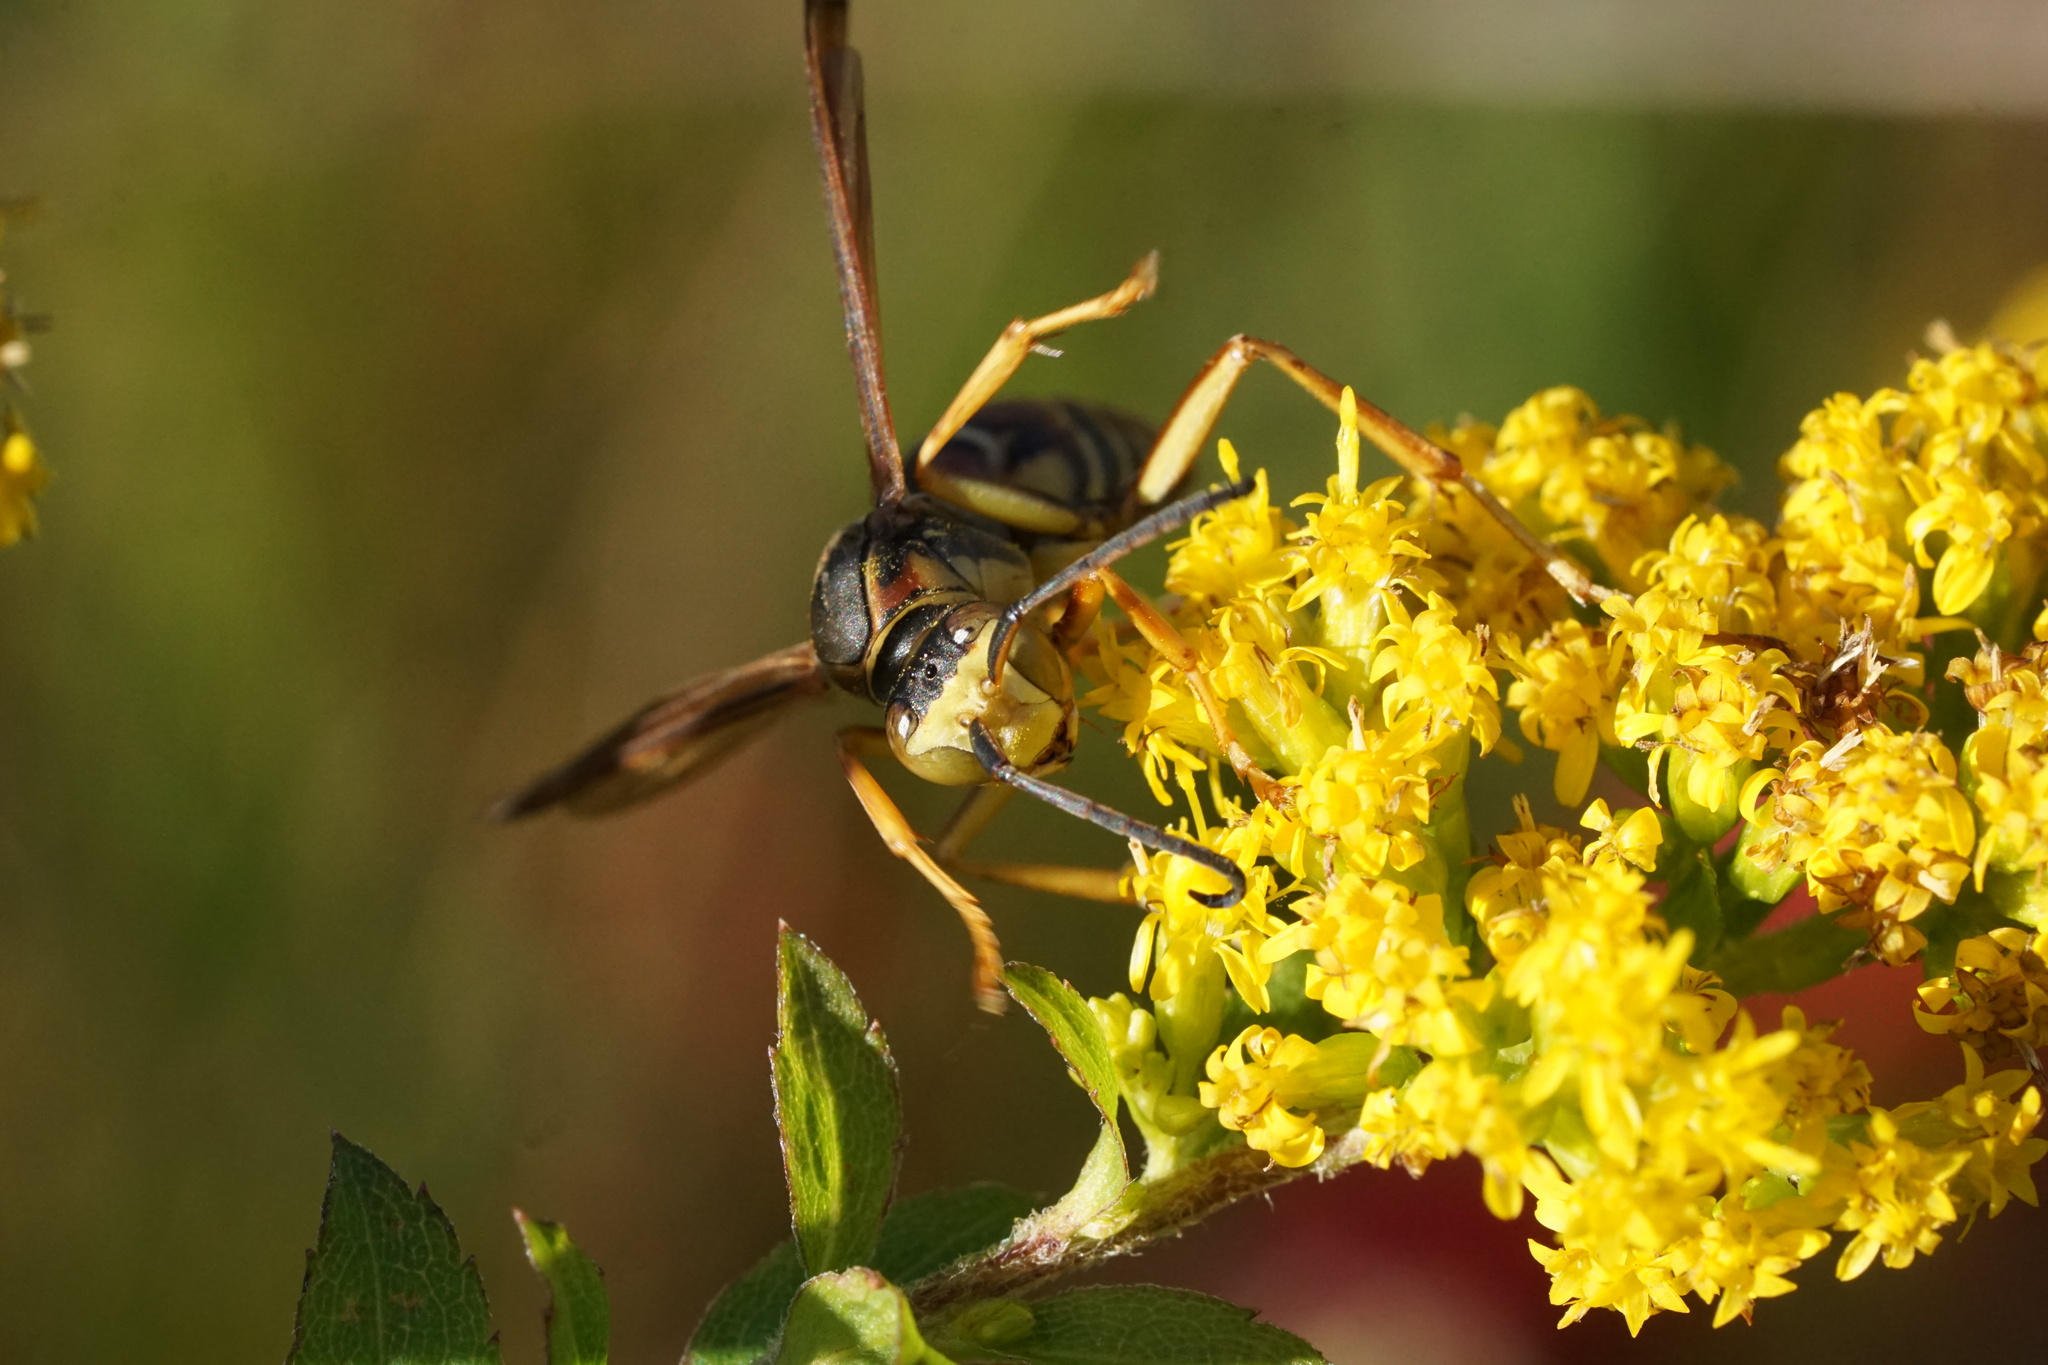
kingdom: Animalia
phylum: Arthropoda
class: Insecta
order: Hymenoptera
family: Eumenidae
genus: Polistes
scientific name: Polistes fuscatus
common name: Dark paper wasp
